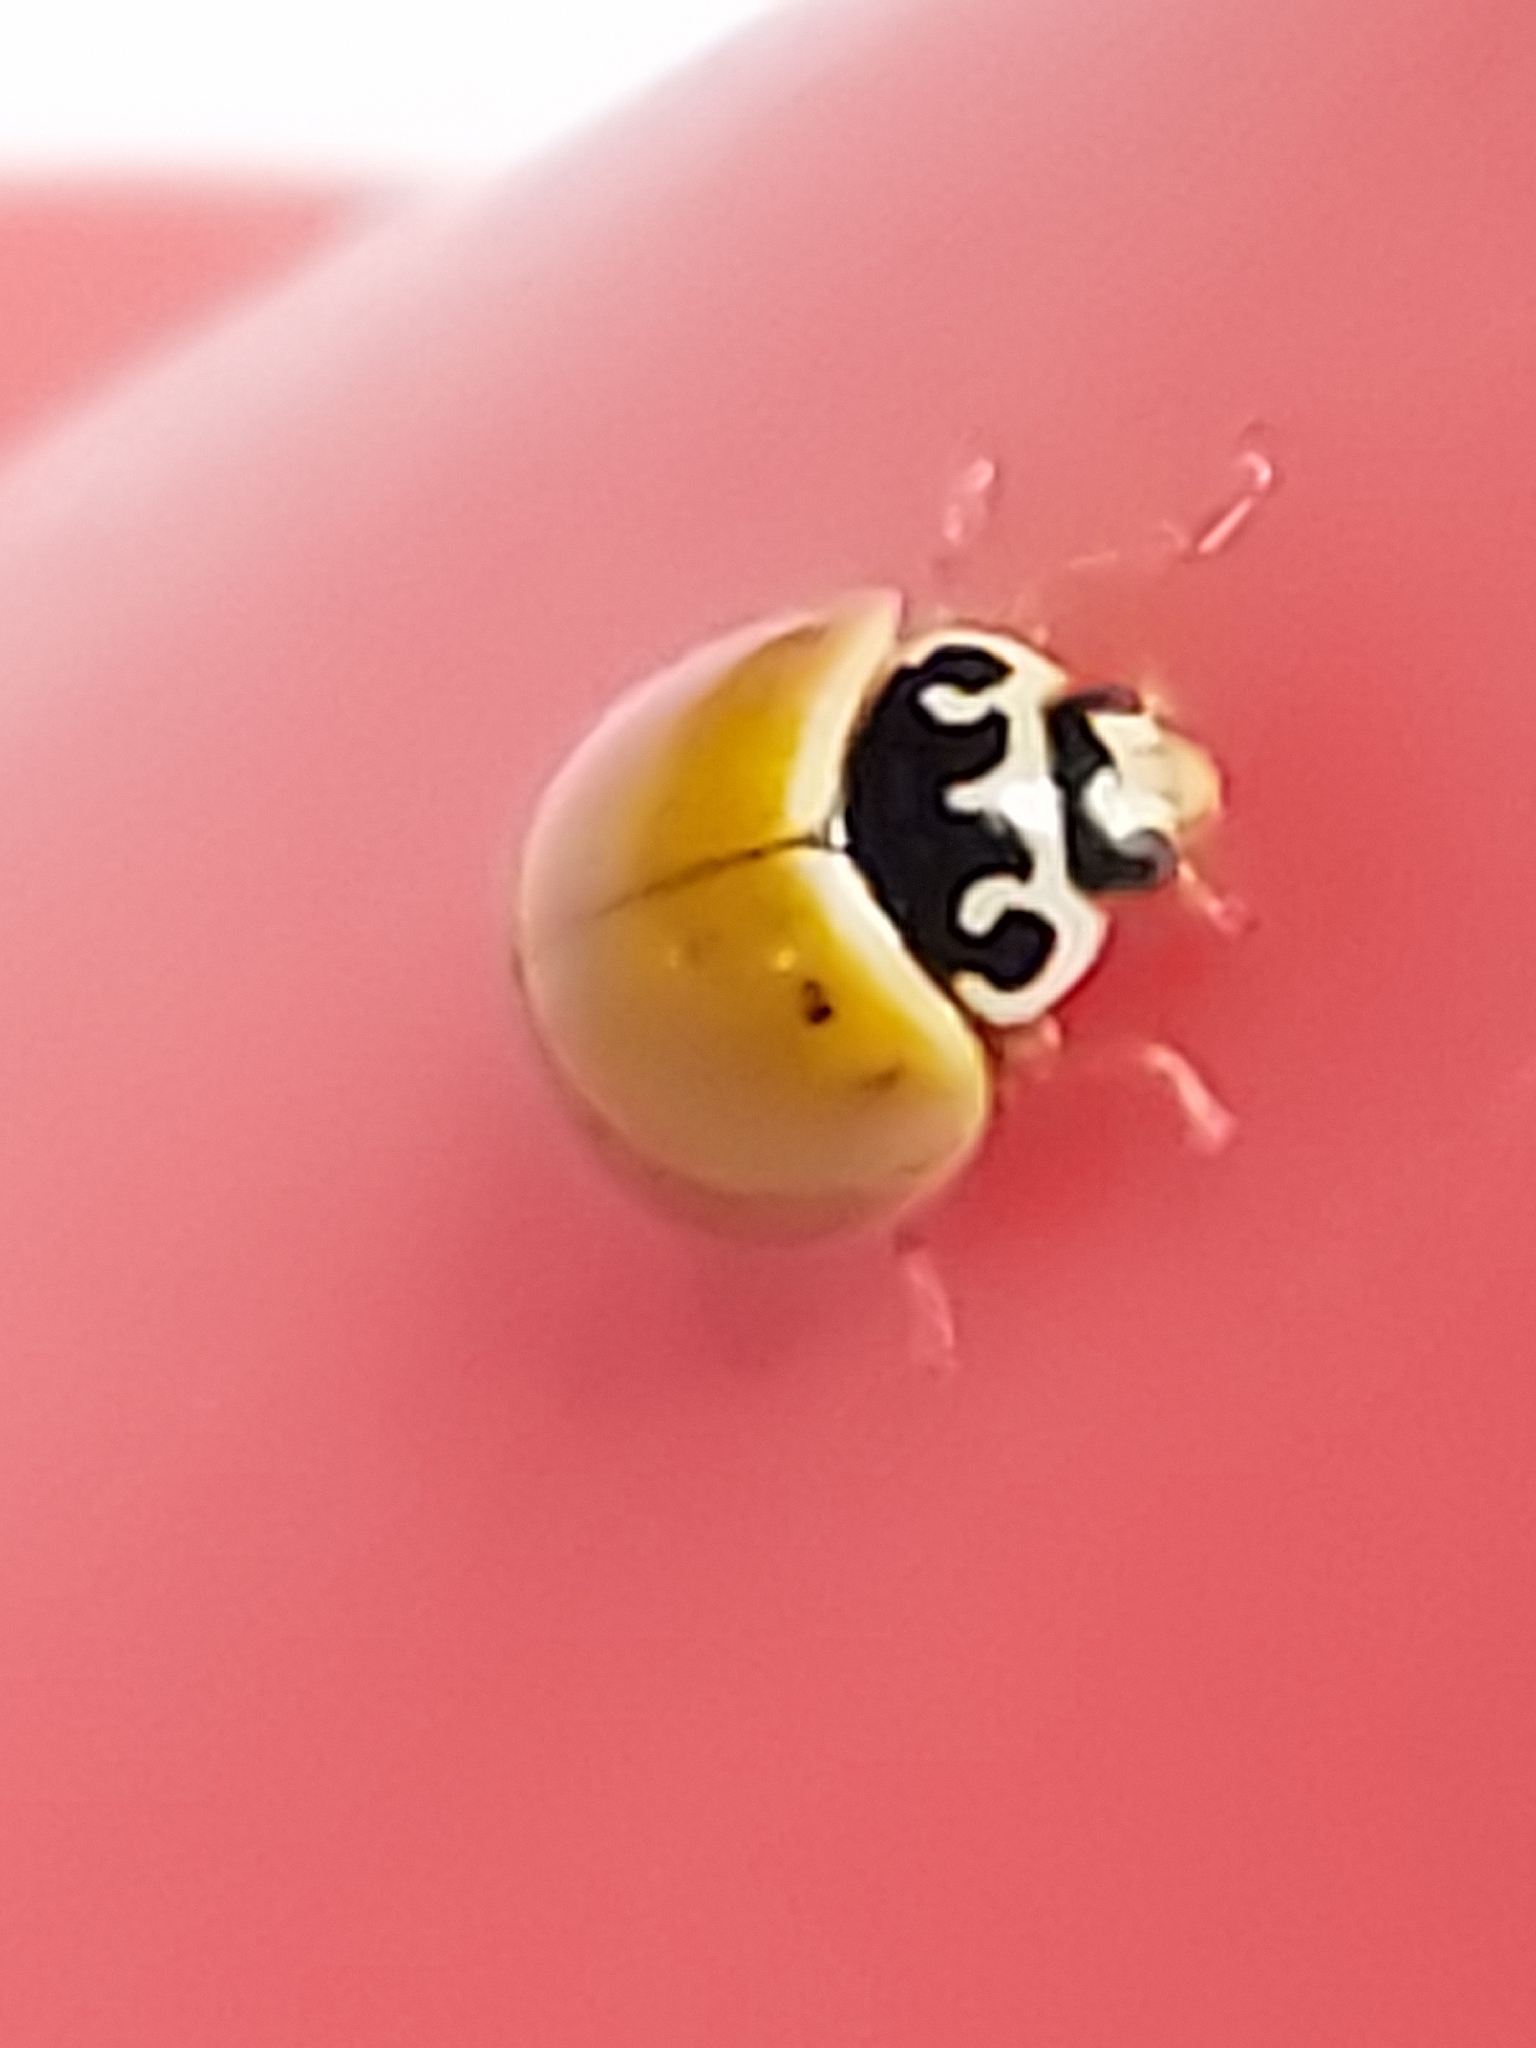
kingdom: Animalia
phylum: Arthropoda
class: Insecta
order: Coleoptera
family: Coccinellidae
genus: Cycloneda
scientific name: Cycloneda munda
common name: Polished lady beetle
